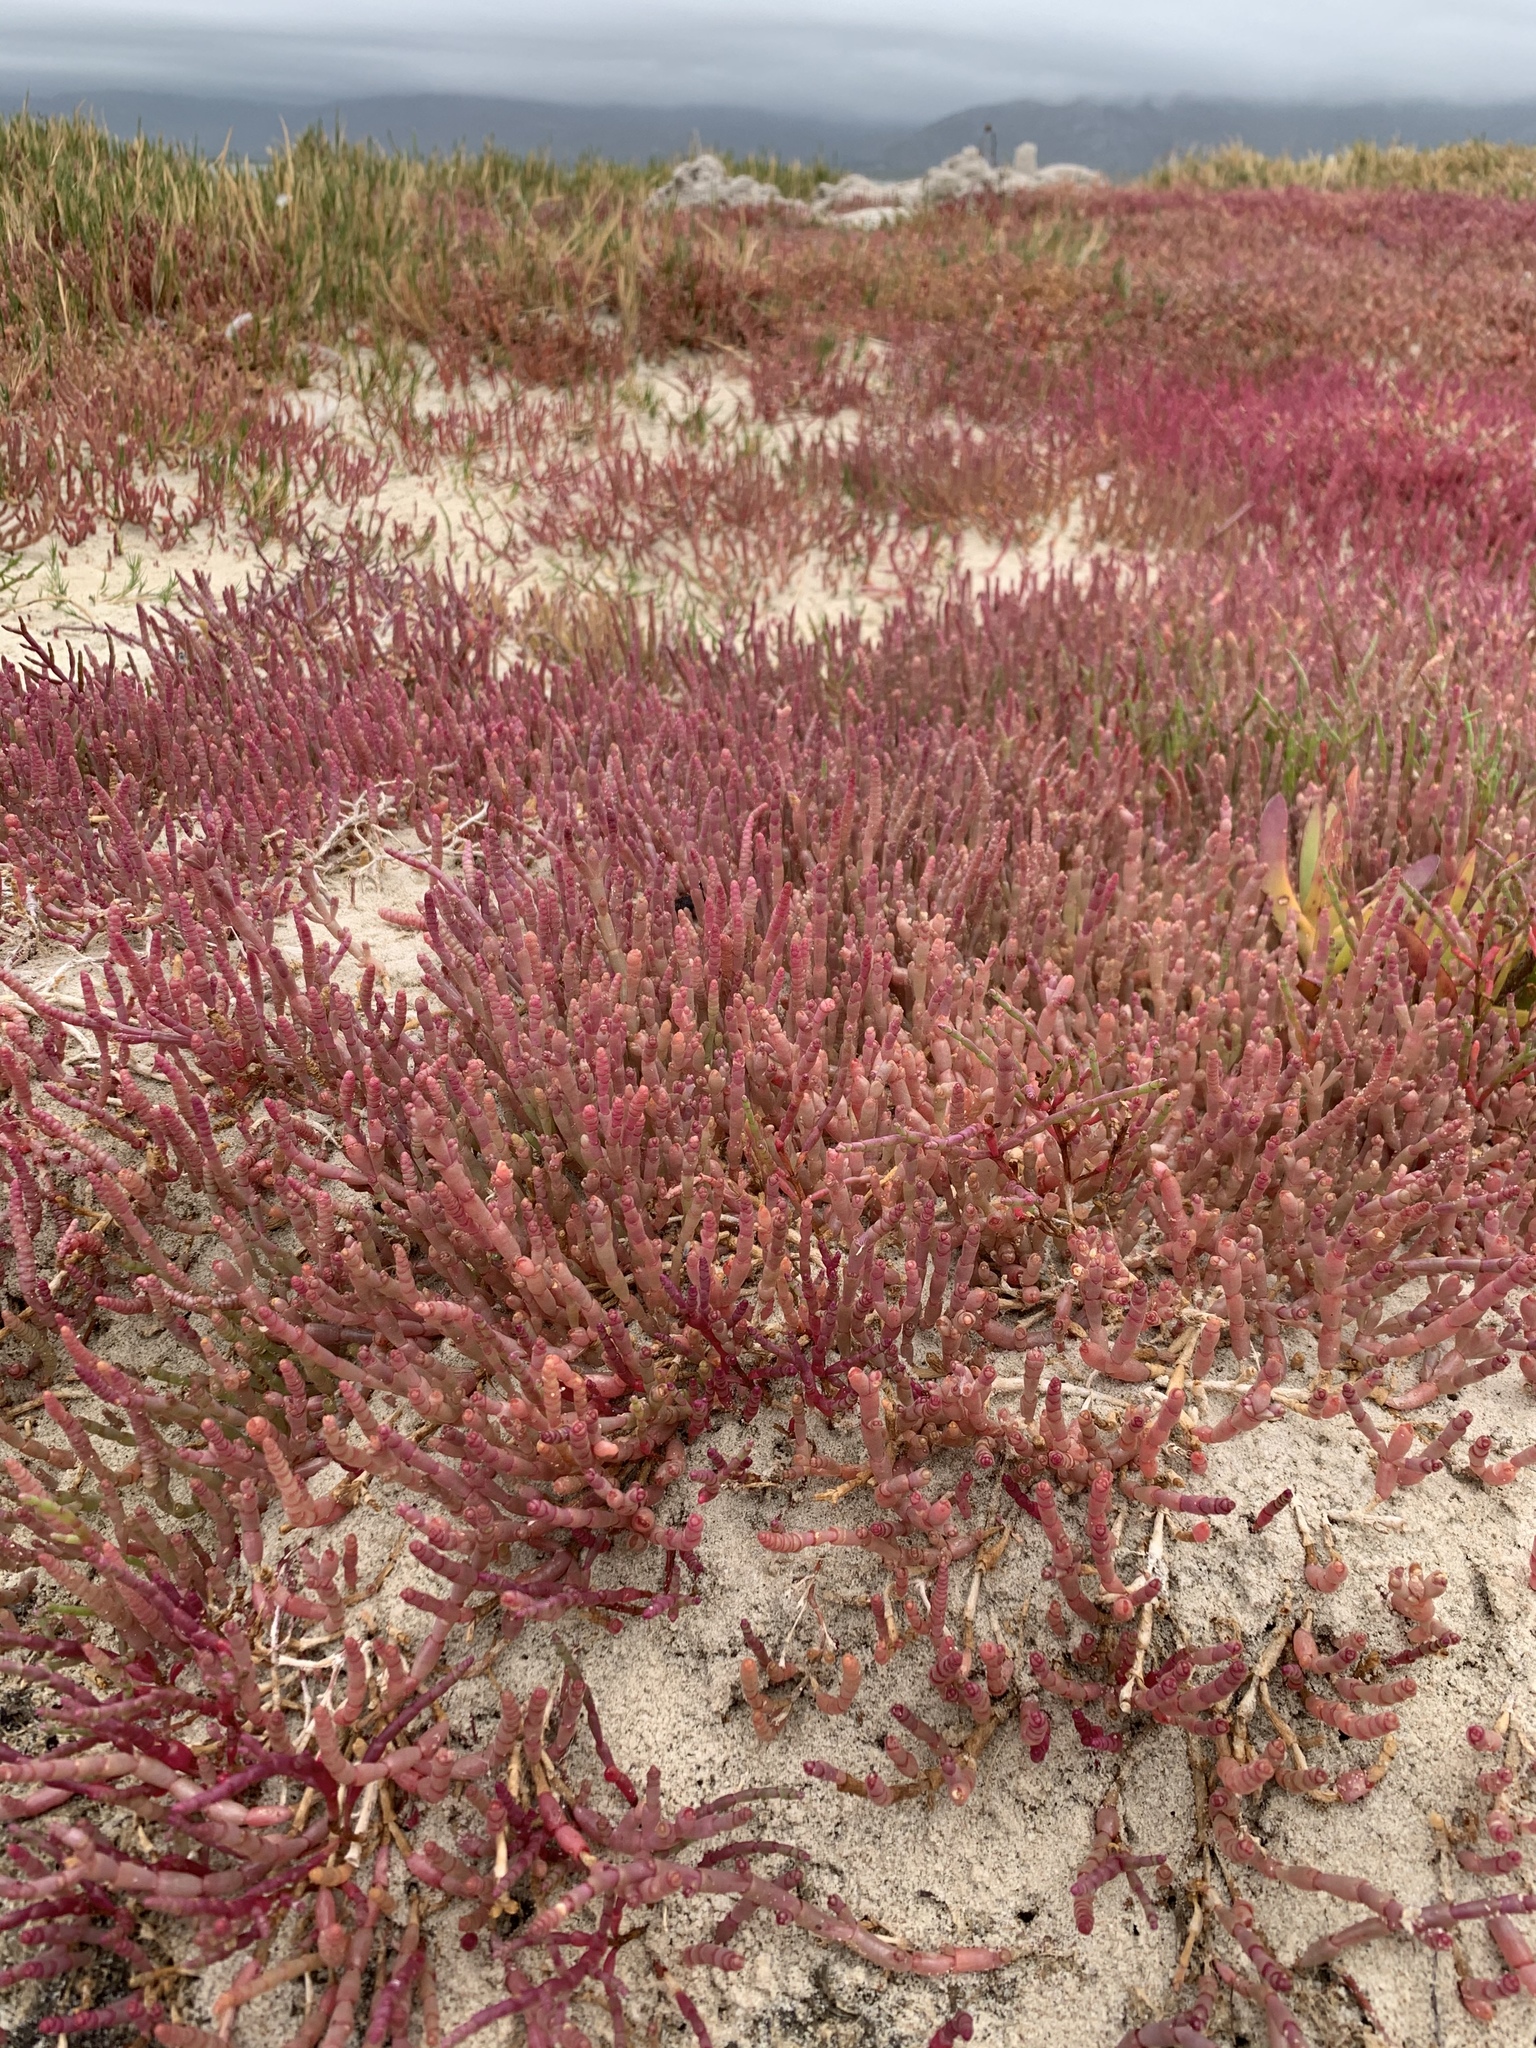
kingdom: Plantae
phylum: Tracheophyta
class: Magnoliopsida
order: Caryophyllales
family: Amaranthaceae
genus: Salicornia
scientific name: Salicornia meyeriana
